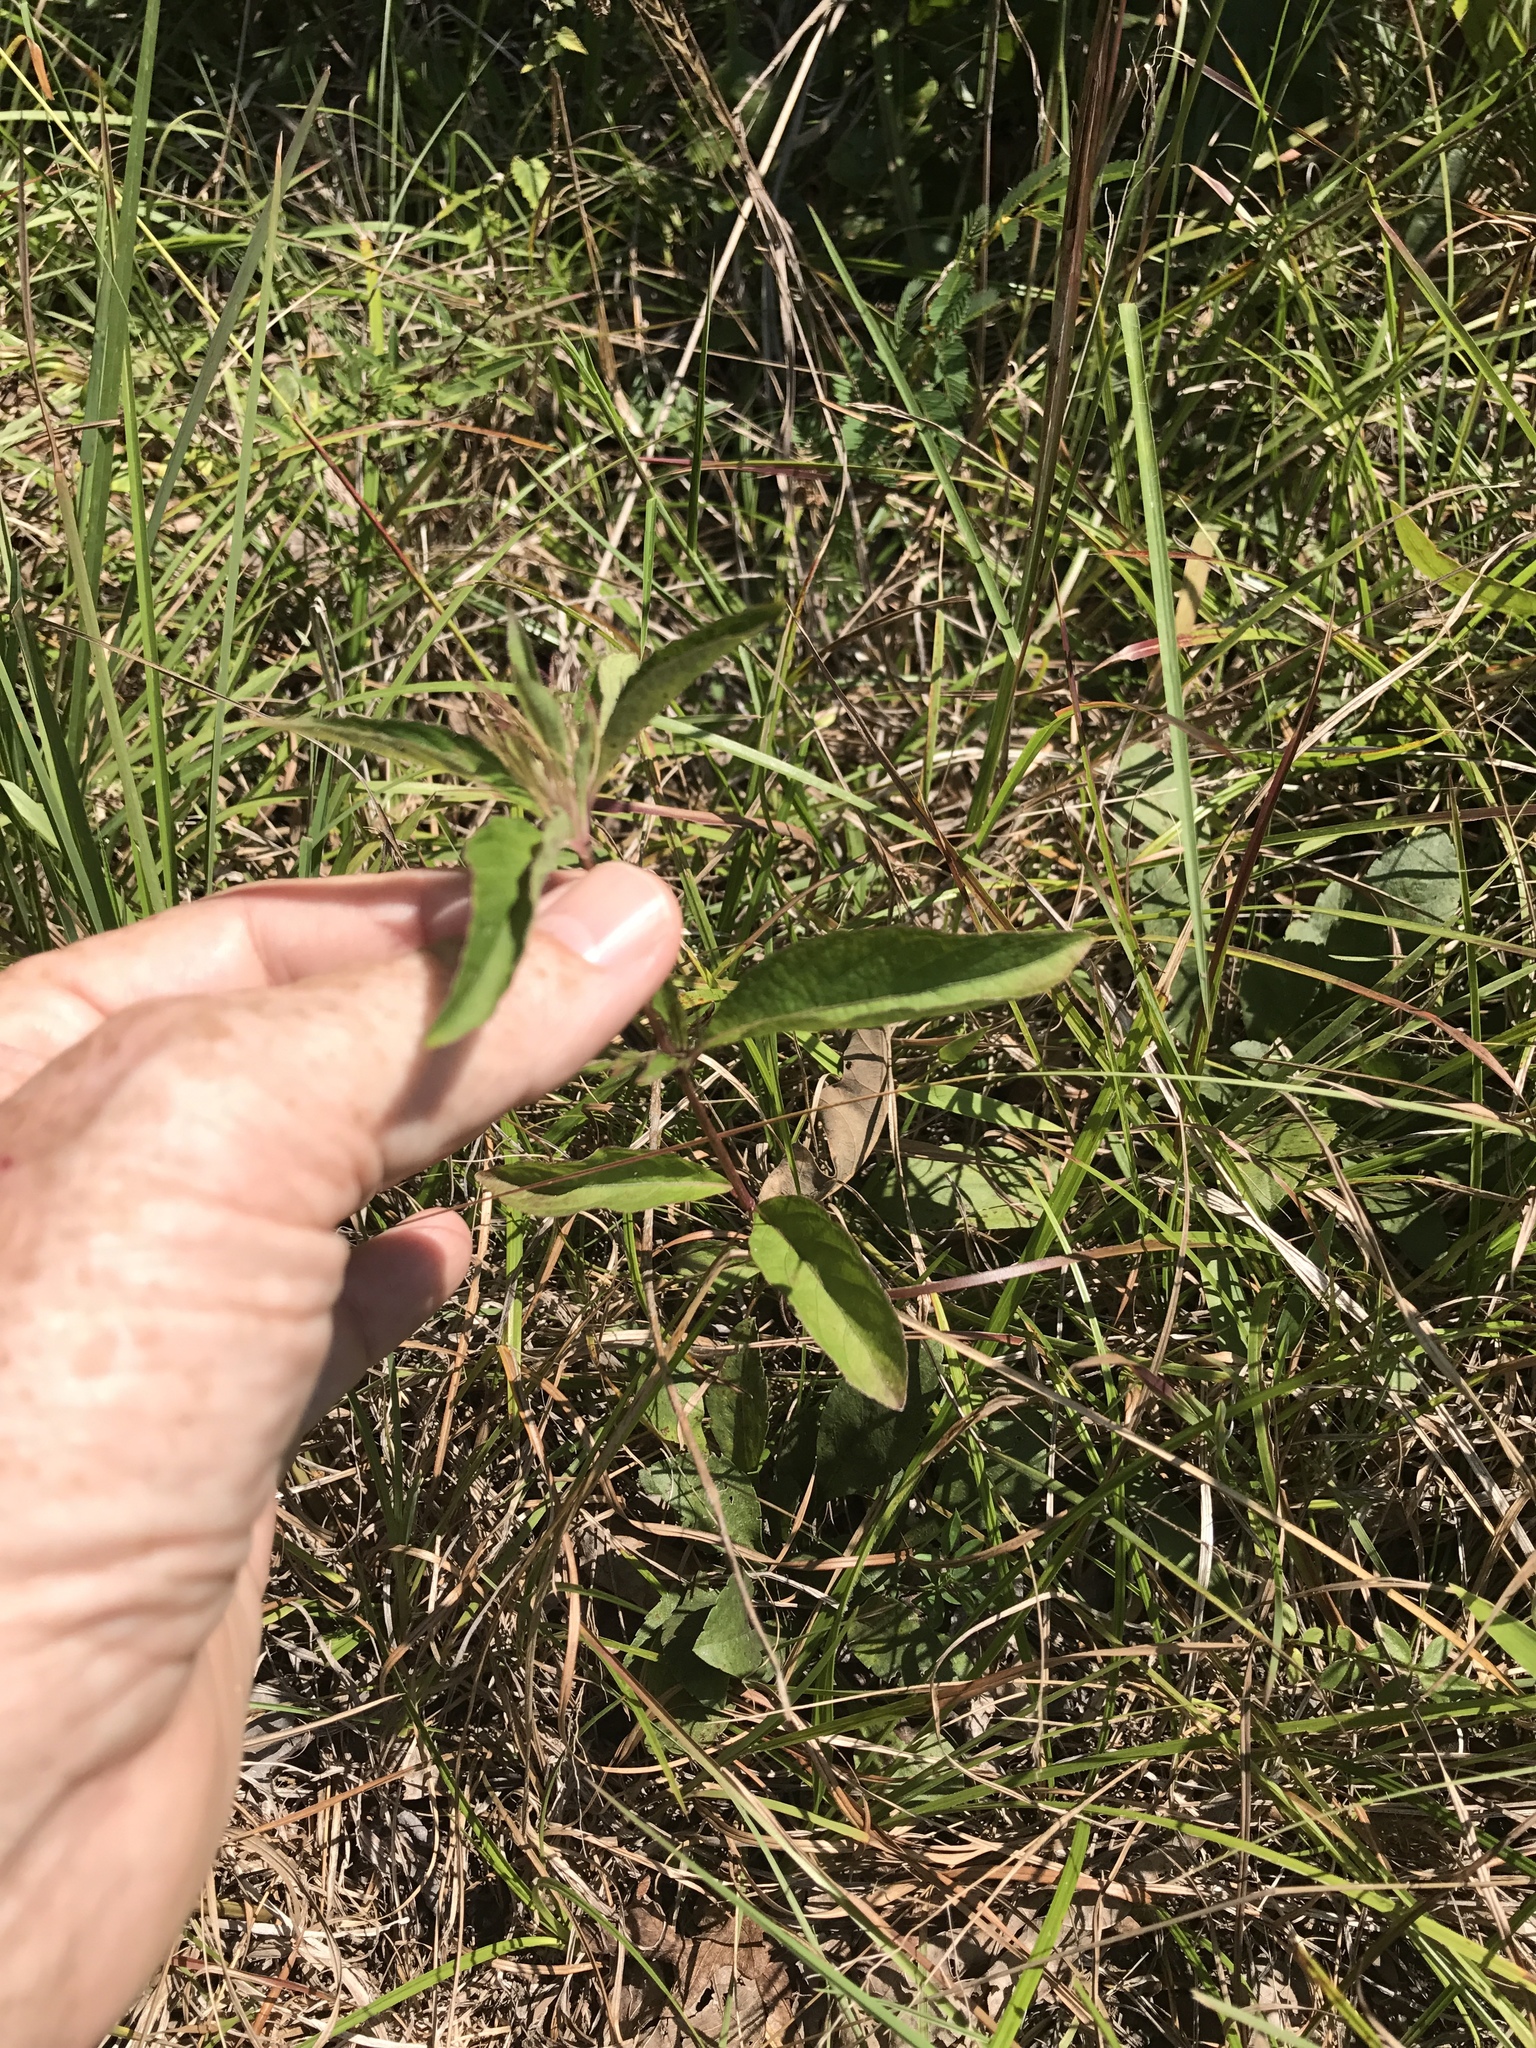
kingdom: Plantae
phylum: Tracheophyta
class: Magnoliopsida
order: Lamiales
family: Acanthaceae
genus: Ruellia
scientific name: Ruellia caroliniensis
